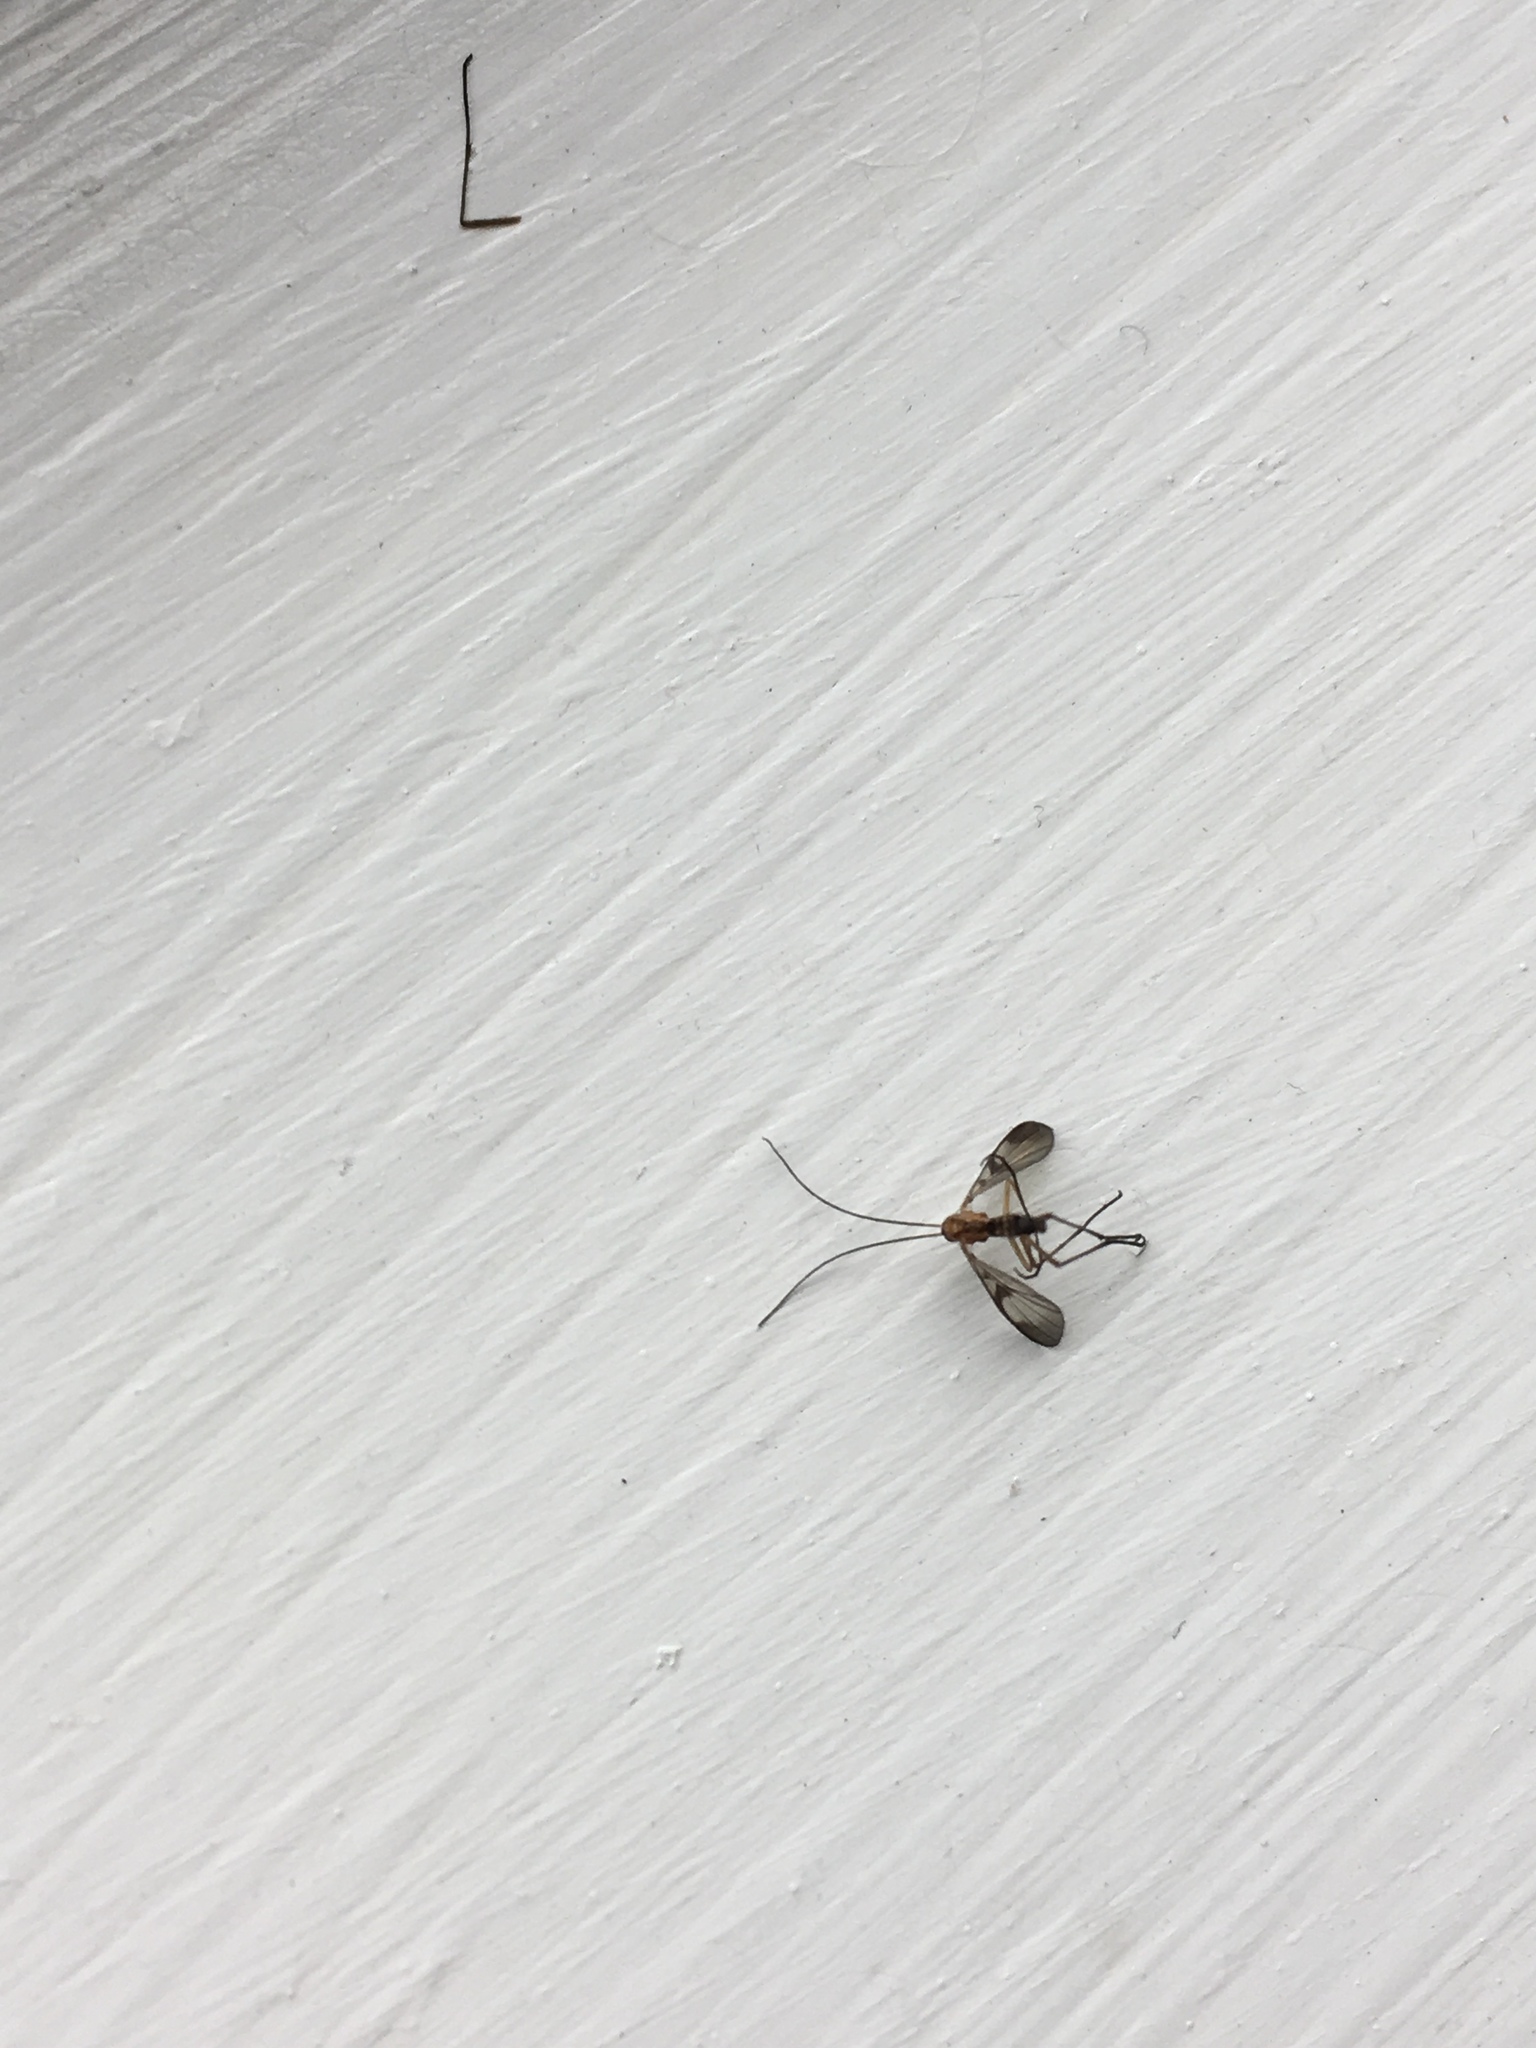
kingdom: Animalia
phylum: Arthropoda
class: Insecta
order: Diptera
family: Keroplatidae
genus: Macrocera
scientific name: Macrocera scoparia
